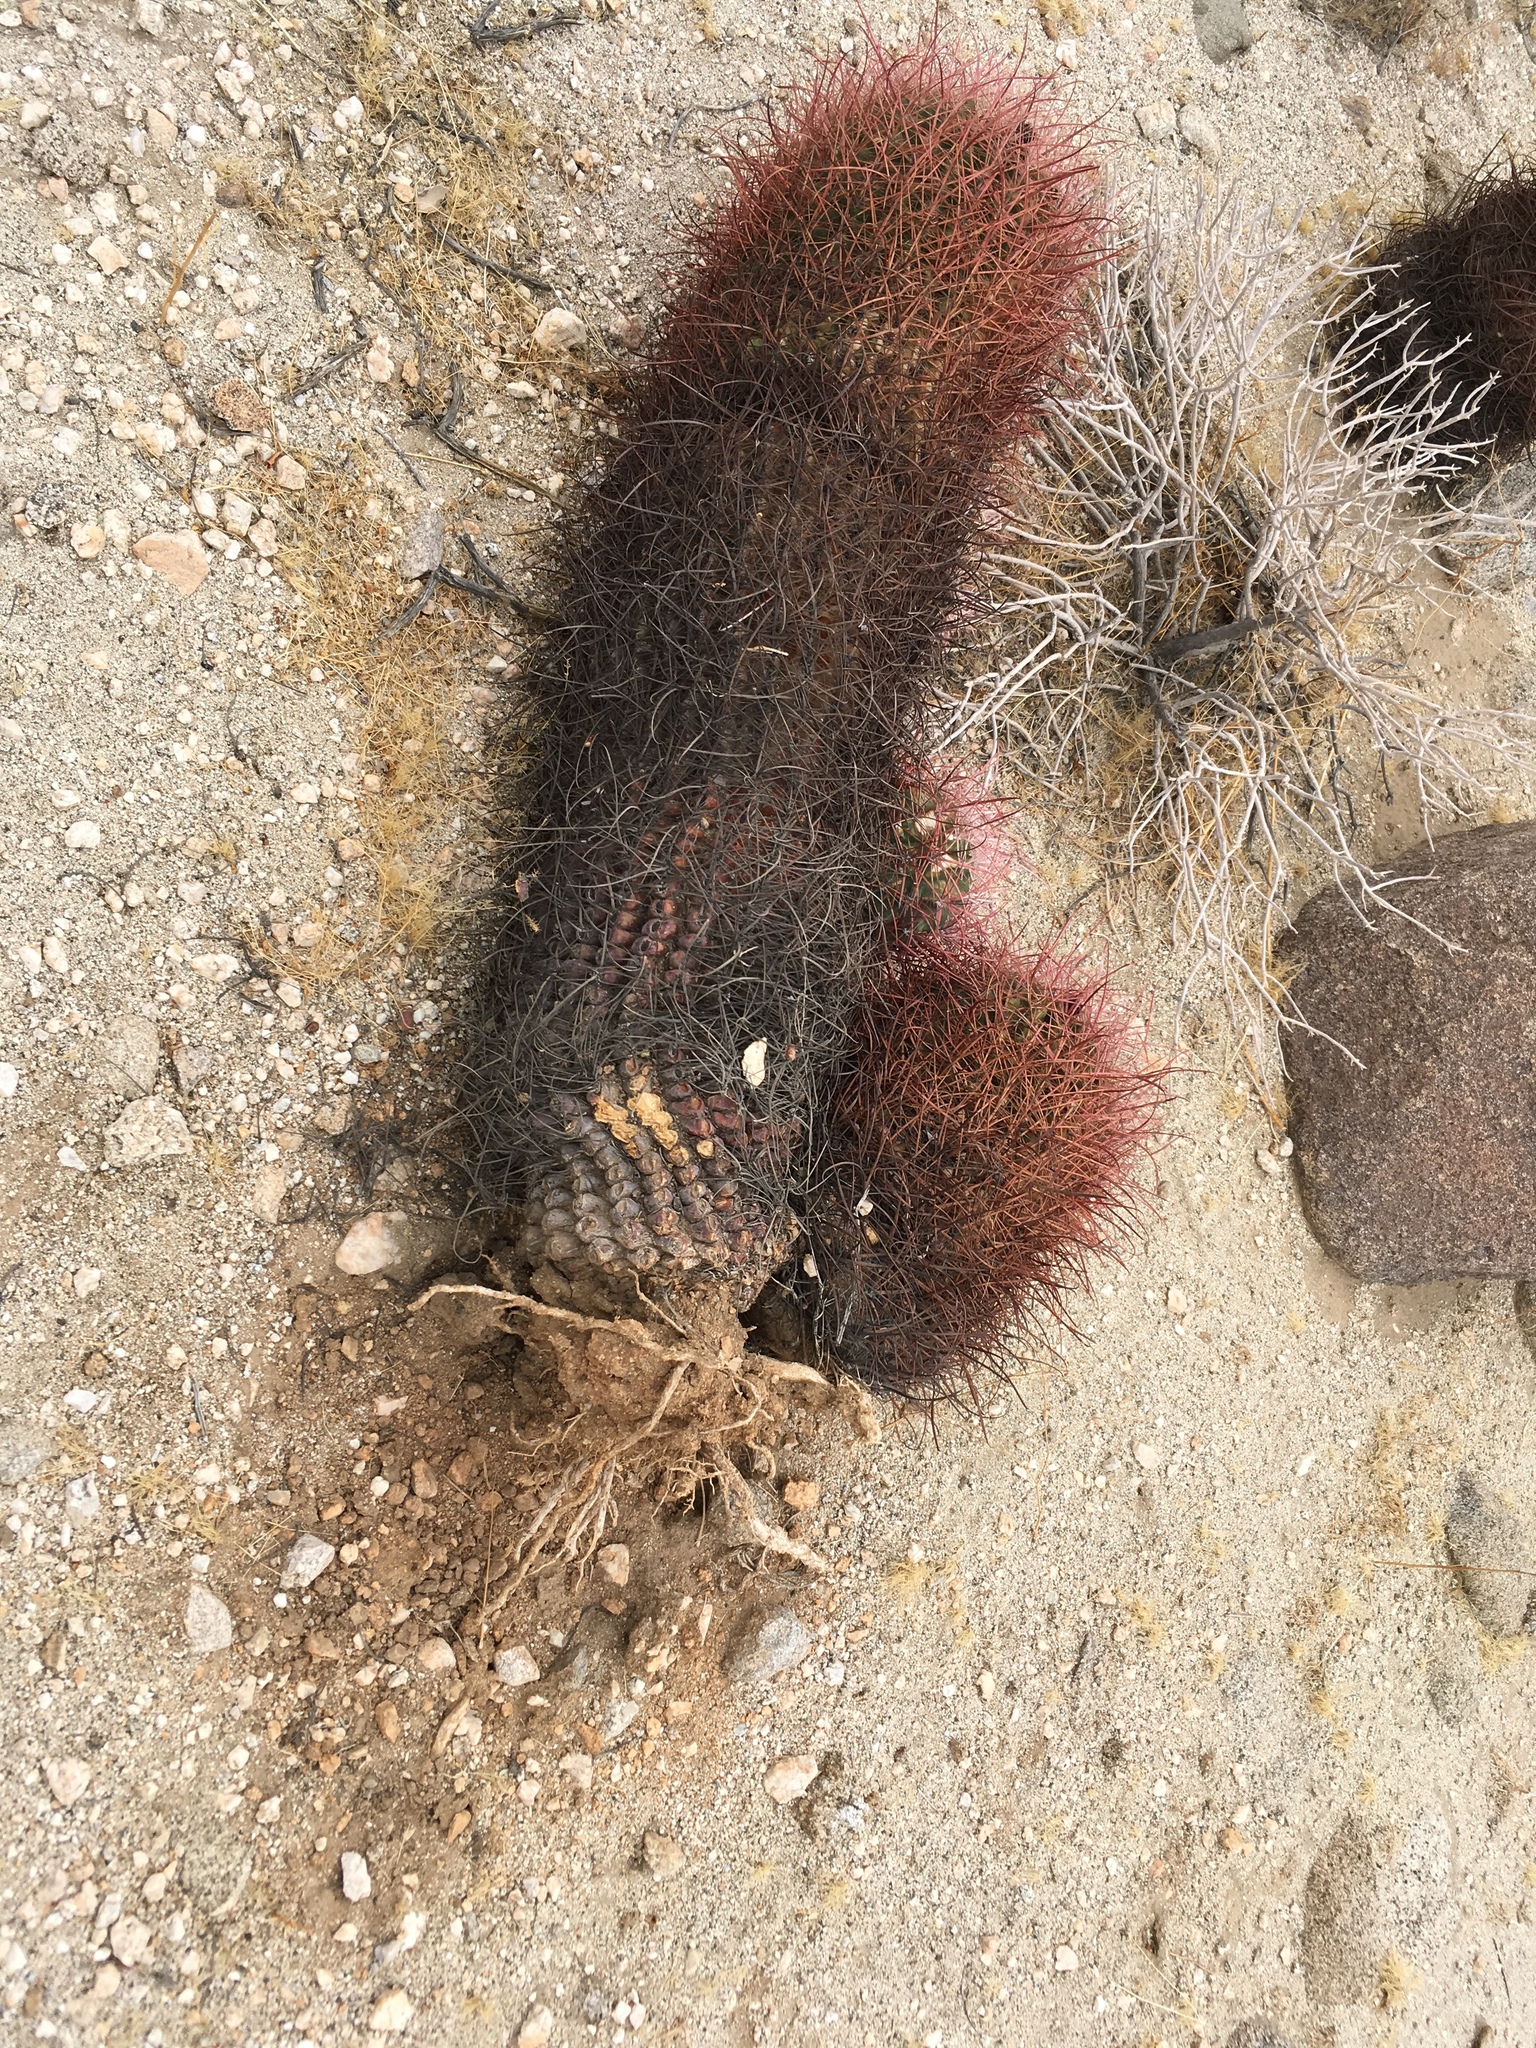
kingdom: Plantae
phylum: Tracheophyta
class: Magnoliopsida
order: Caryophyllales
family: Cactaceae
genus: Ferocactus
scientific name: Ferocactus cylindraceus
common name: California barrel cactus
